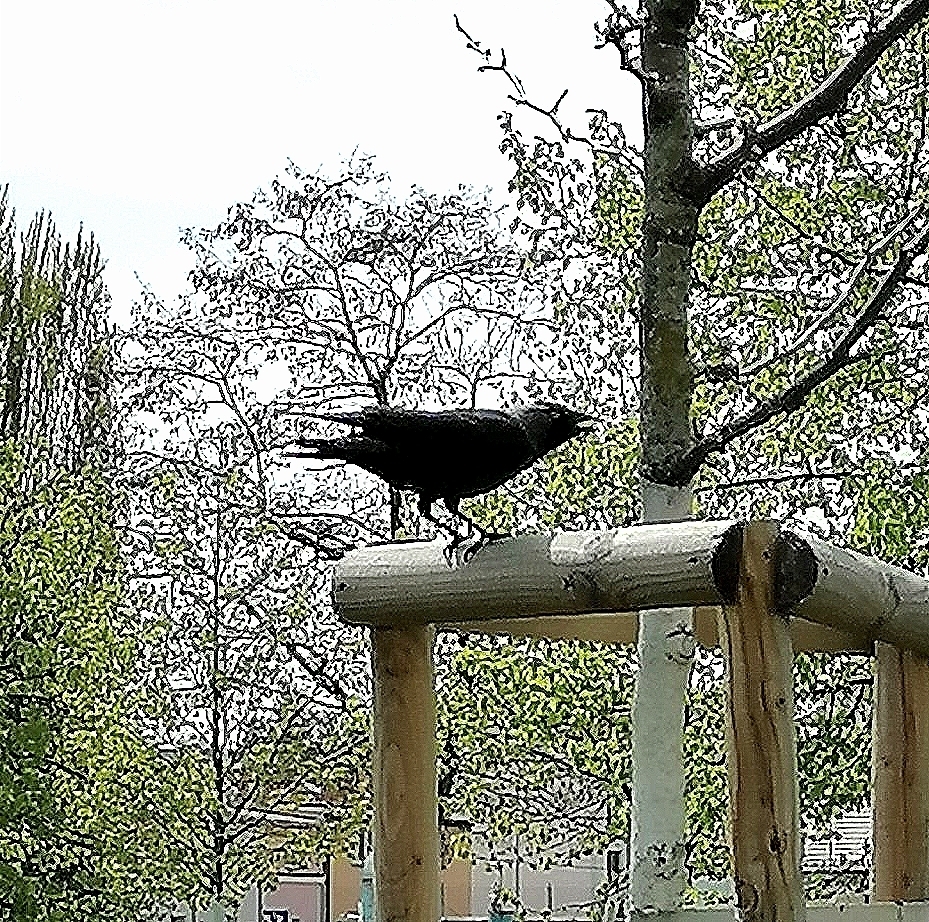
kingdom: Animalia
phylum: Chordata
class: Aves
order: Passeriformes
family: Corvidae
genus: Coloeus
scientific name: Coloeus monedula
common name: Western jackdaw
